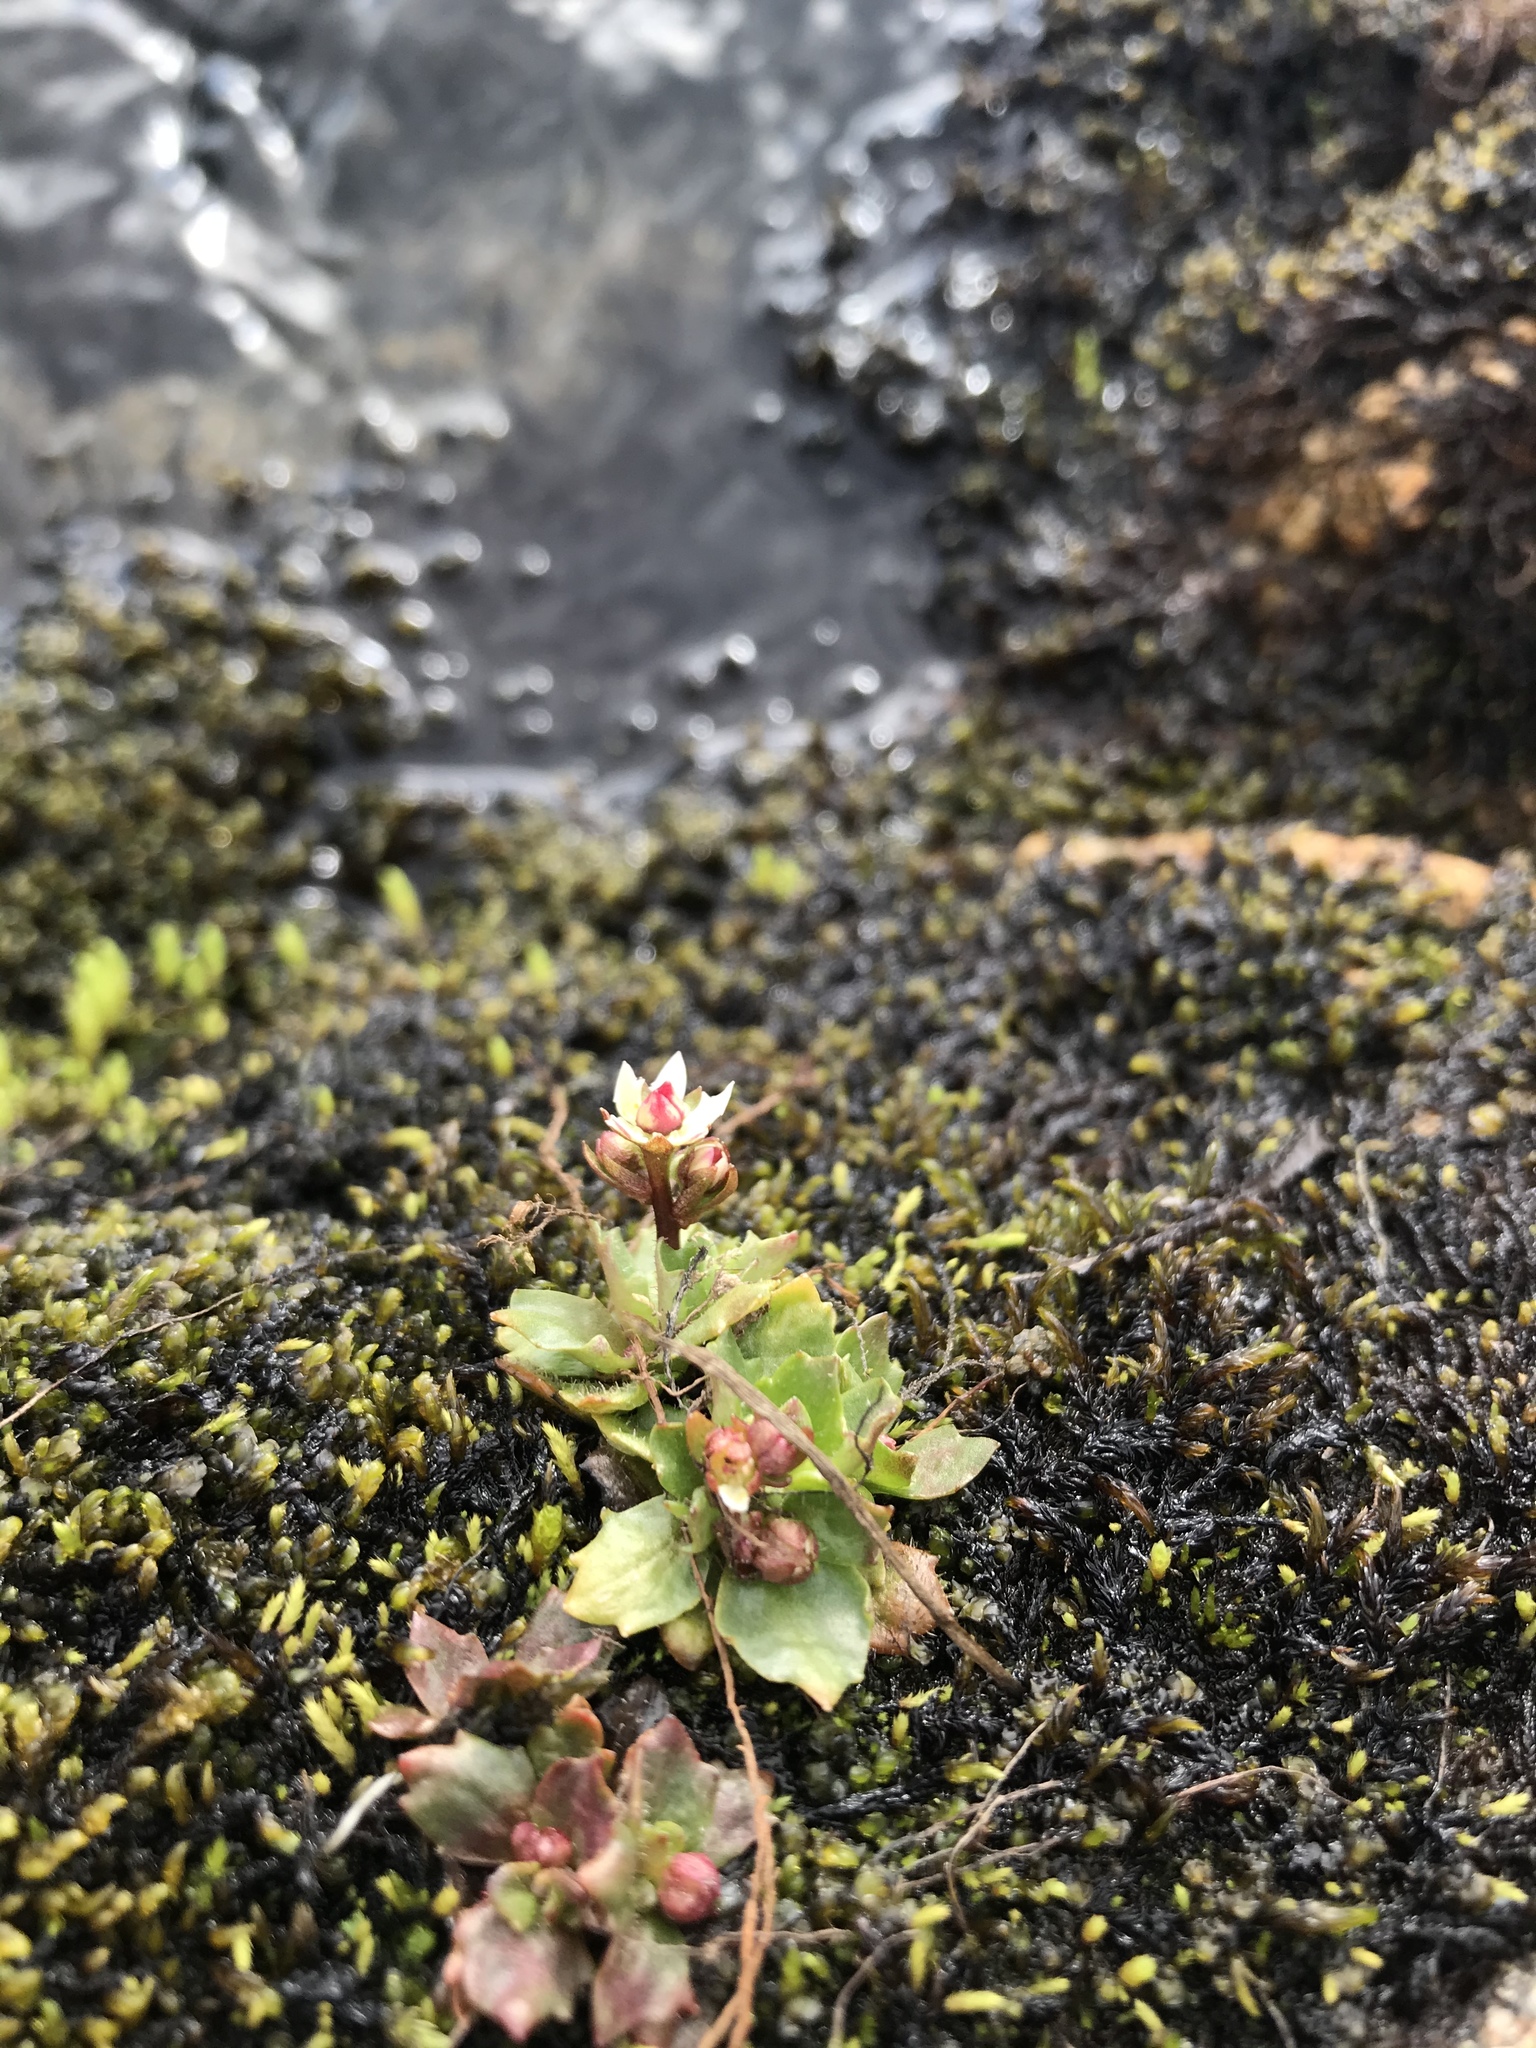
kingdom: Plantae
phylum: Tracheophyta
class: Magnoliopsida
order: Saxifragales
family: Saxifragaceae
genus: Micranthes
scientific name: Micranthes stellaris
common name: Starry saxifrage
